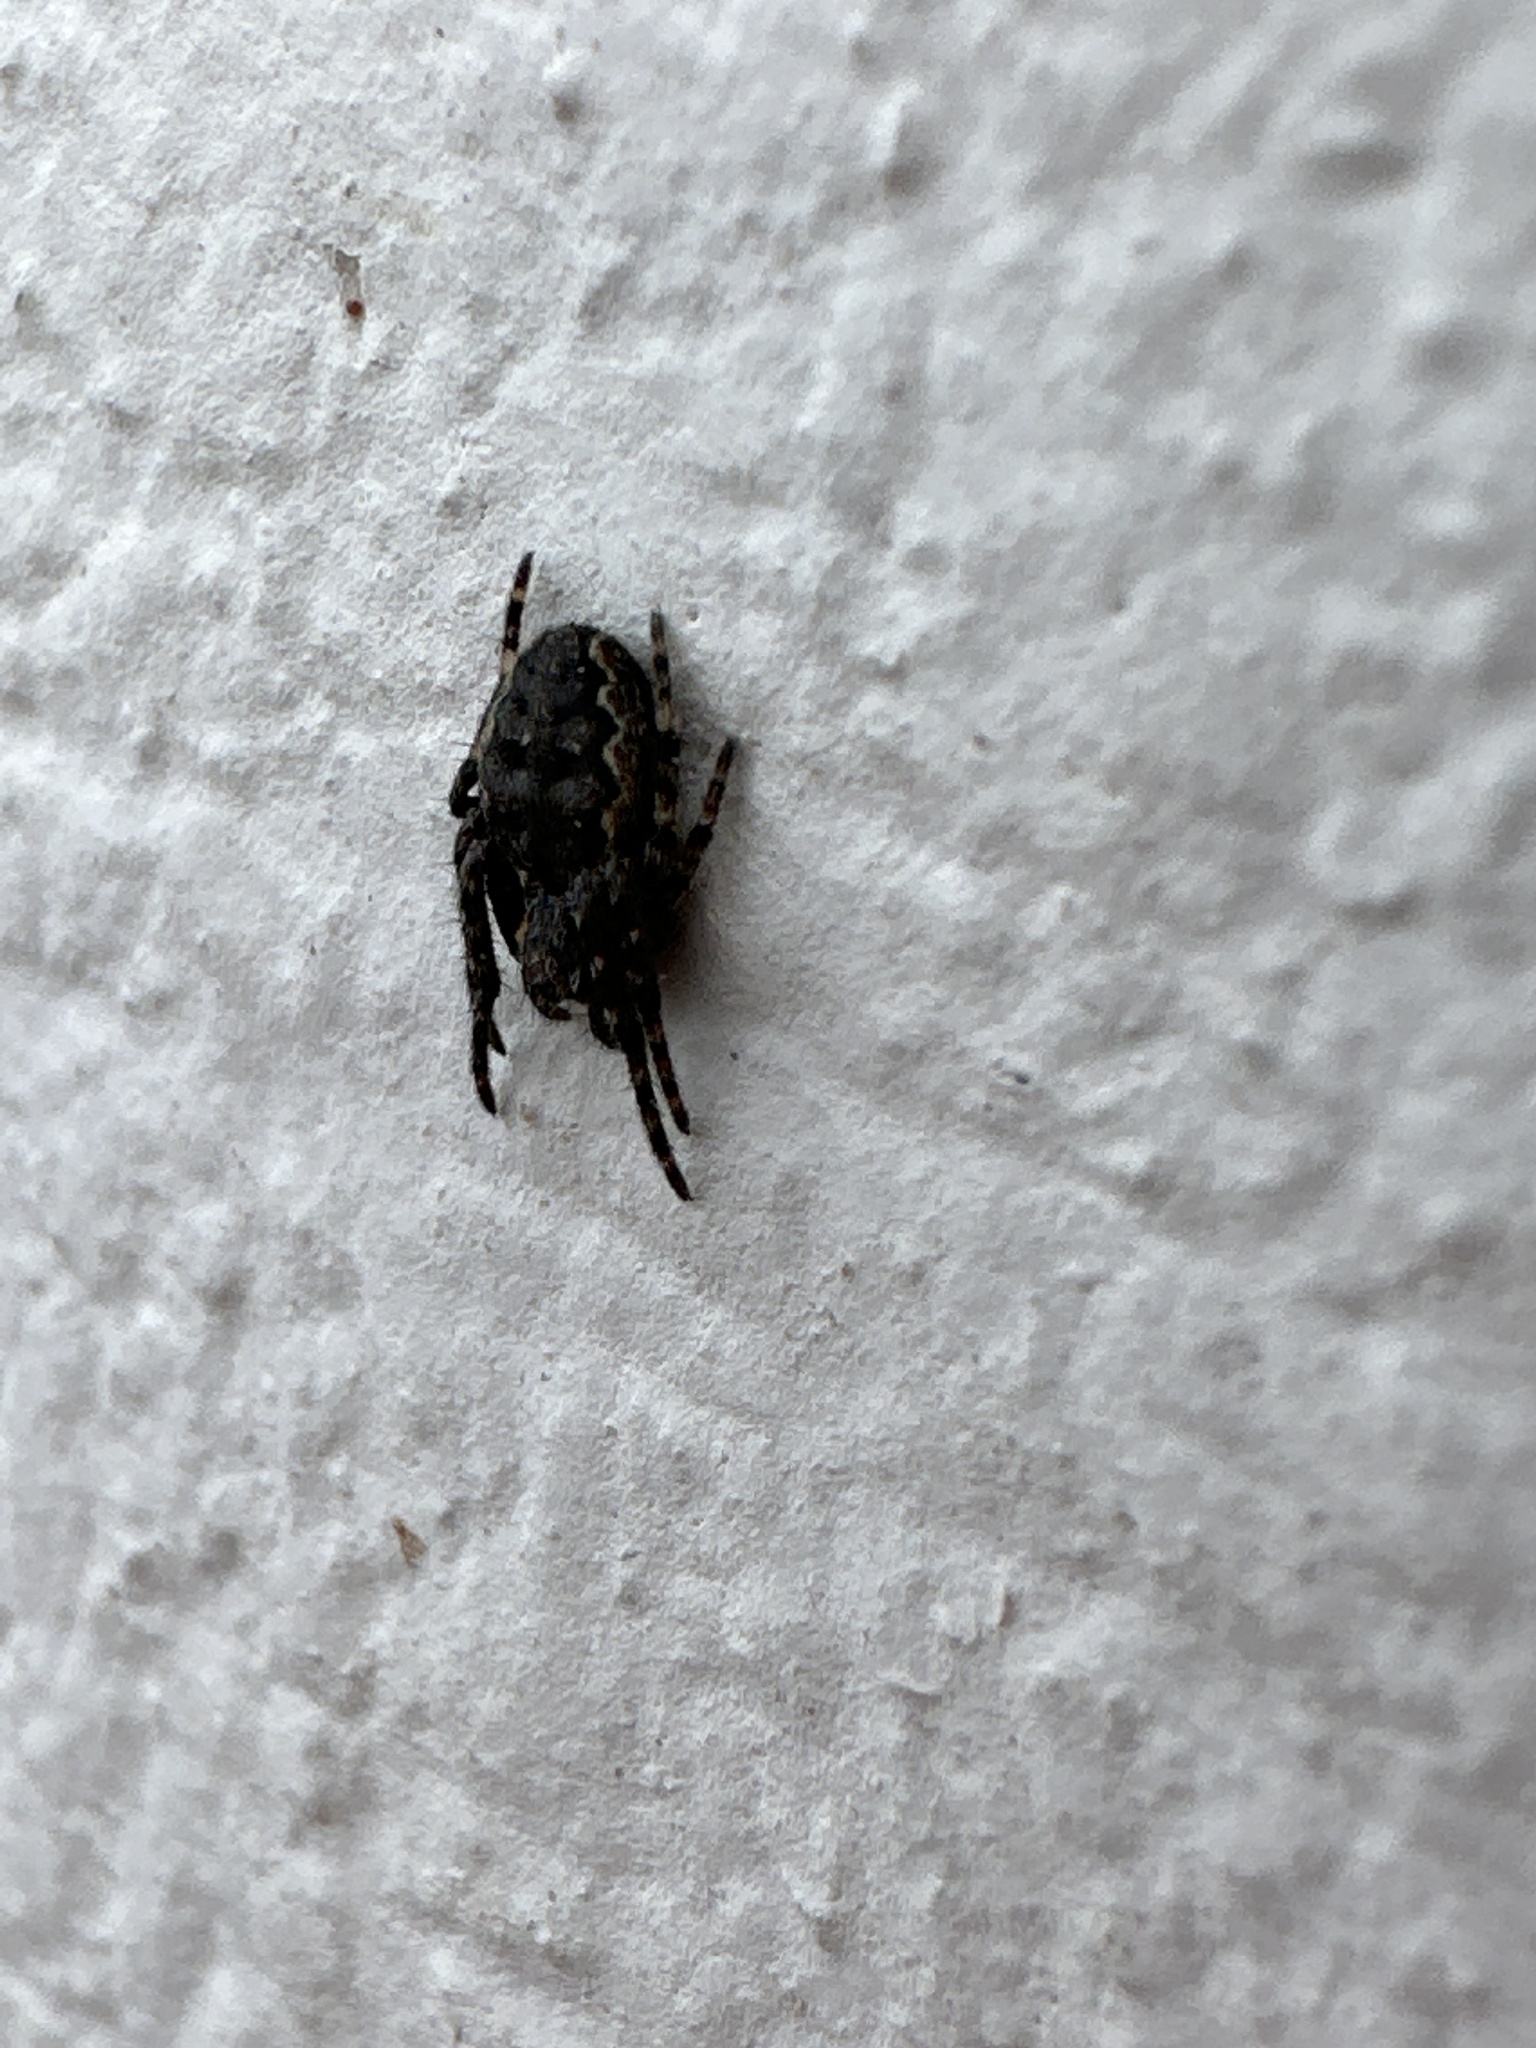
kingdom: Animalia
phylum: Arthropoda
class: Arachnida
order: Araneae
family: Araneidae
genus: Nuctenea
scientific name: Nuctenea umbratica
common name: Toad spider
